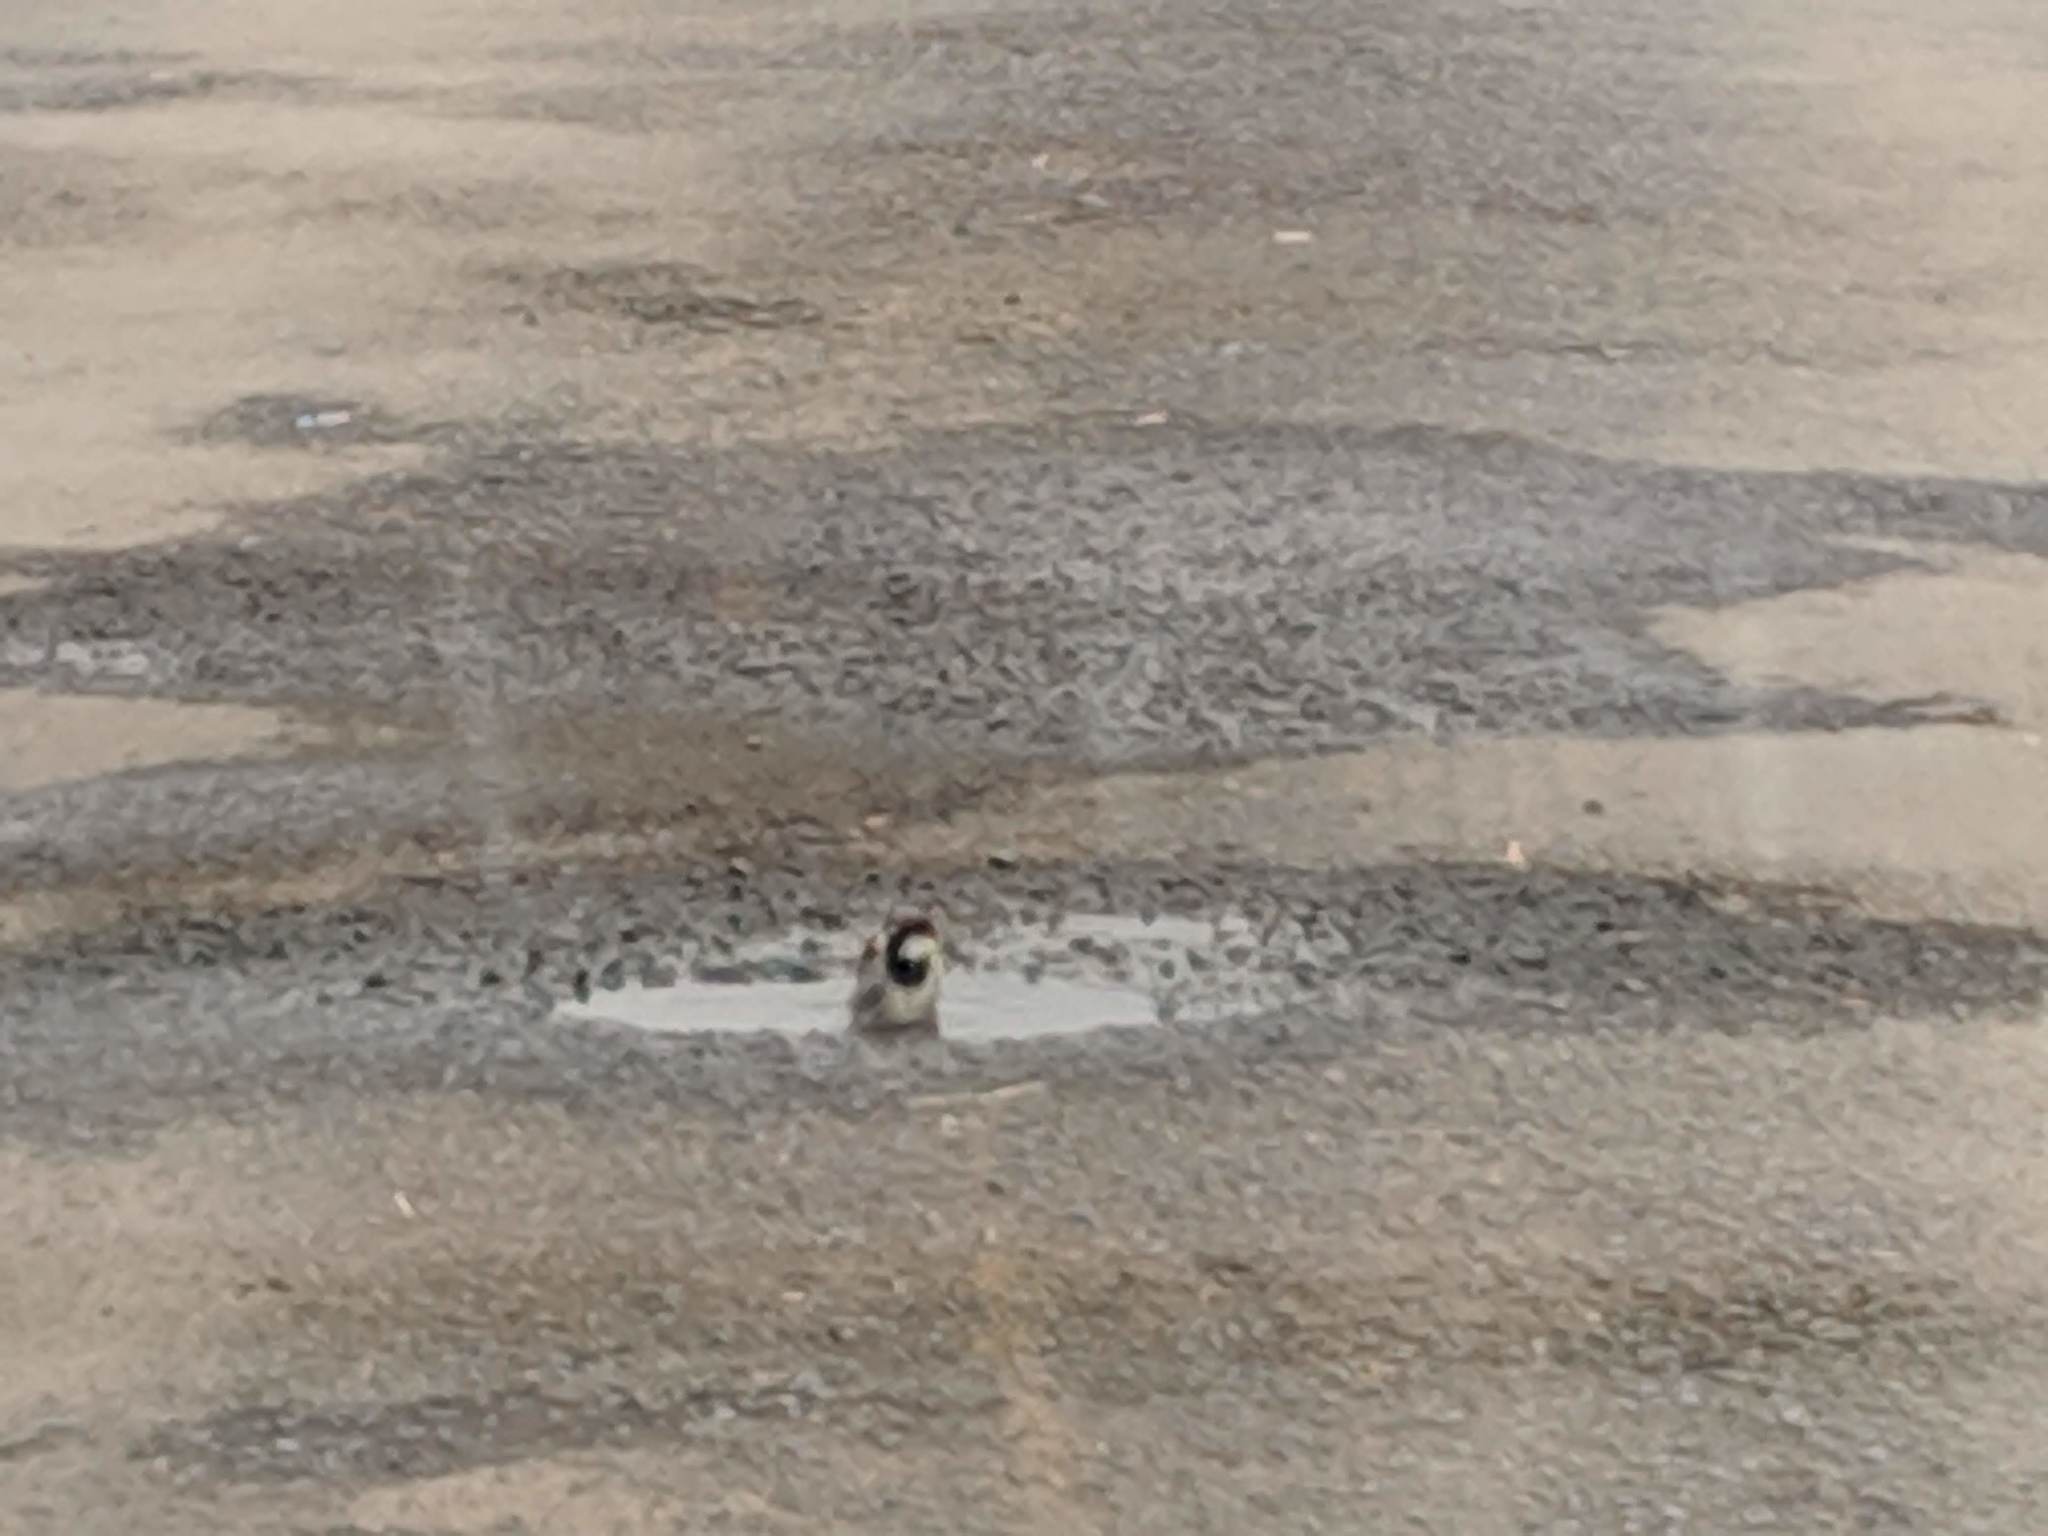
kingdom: Animalia
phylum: Chordata
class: Aves
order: Passeriformes
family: Passeridae
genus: Passer
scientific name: Passer domesticus
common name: House sparrow
